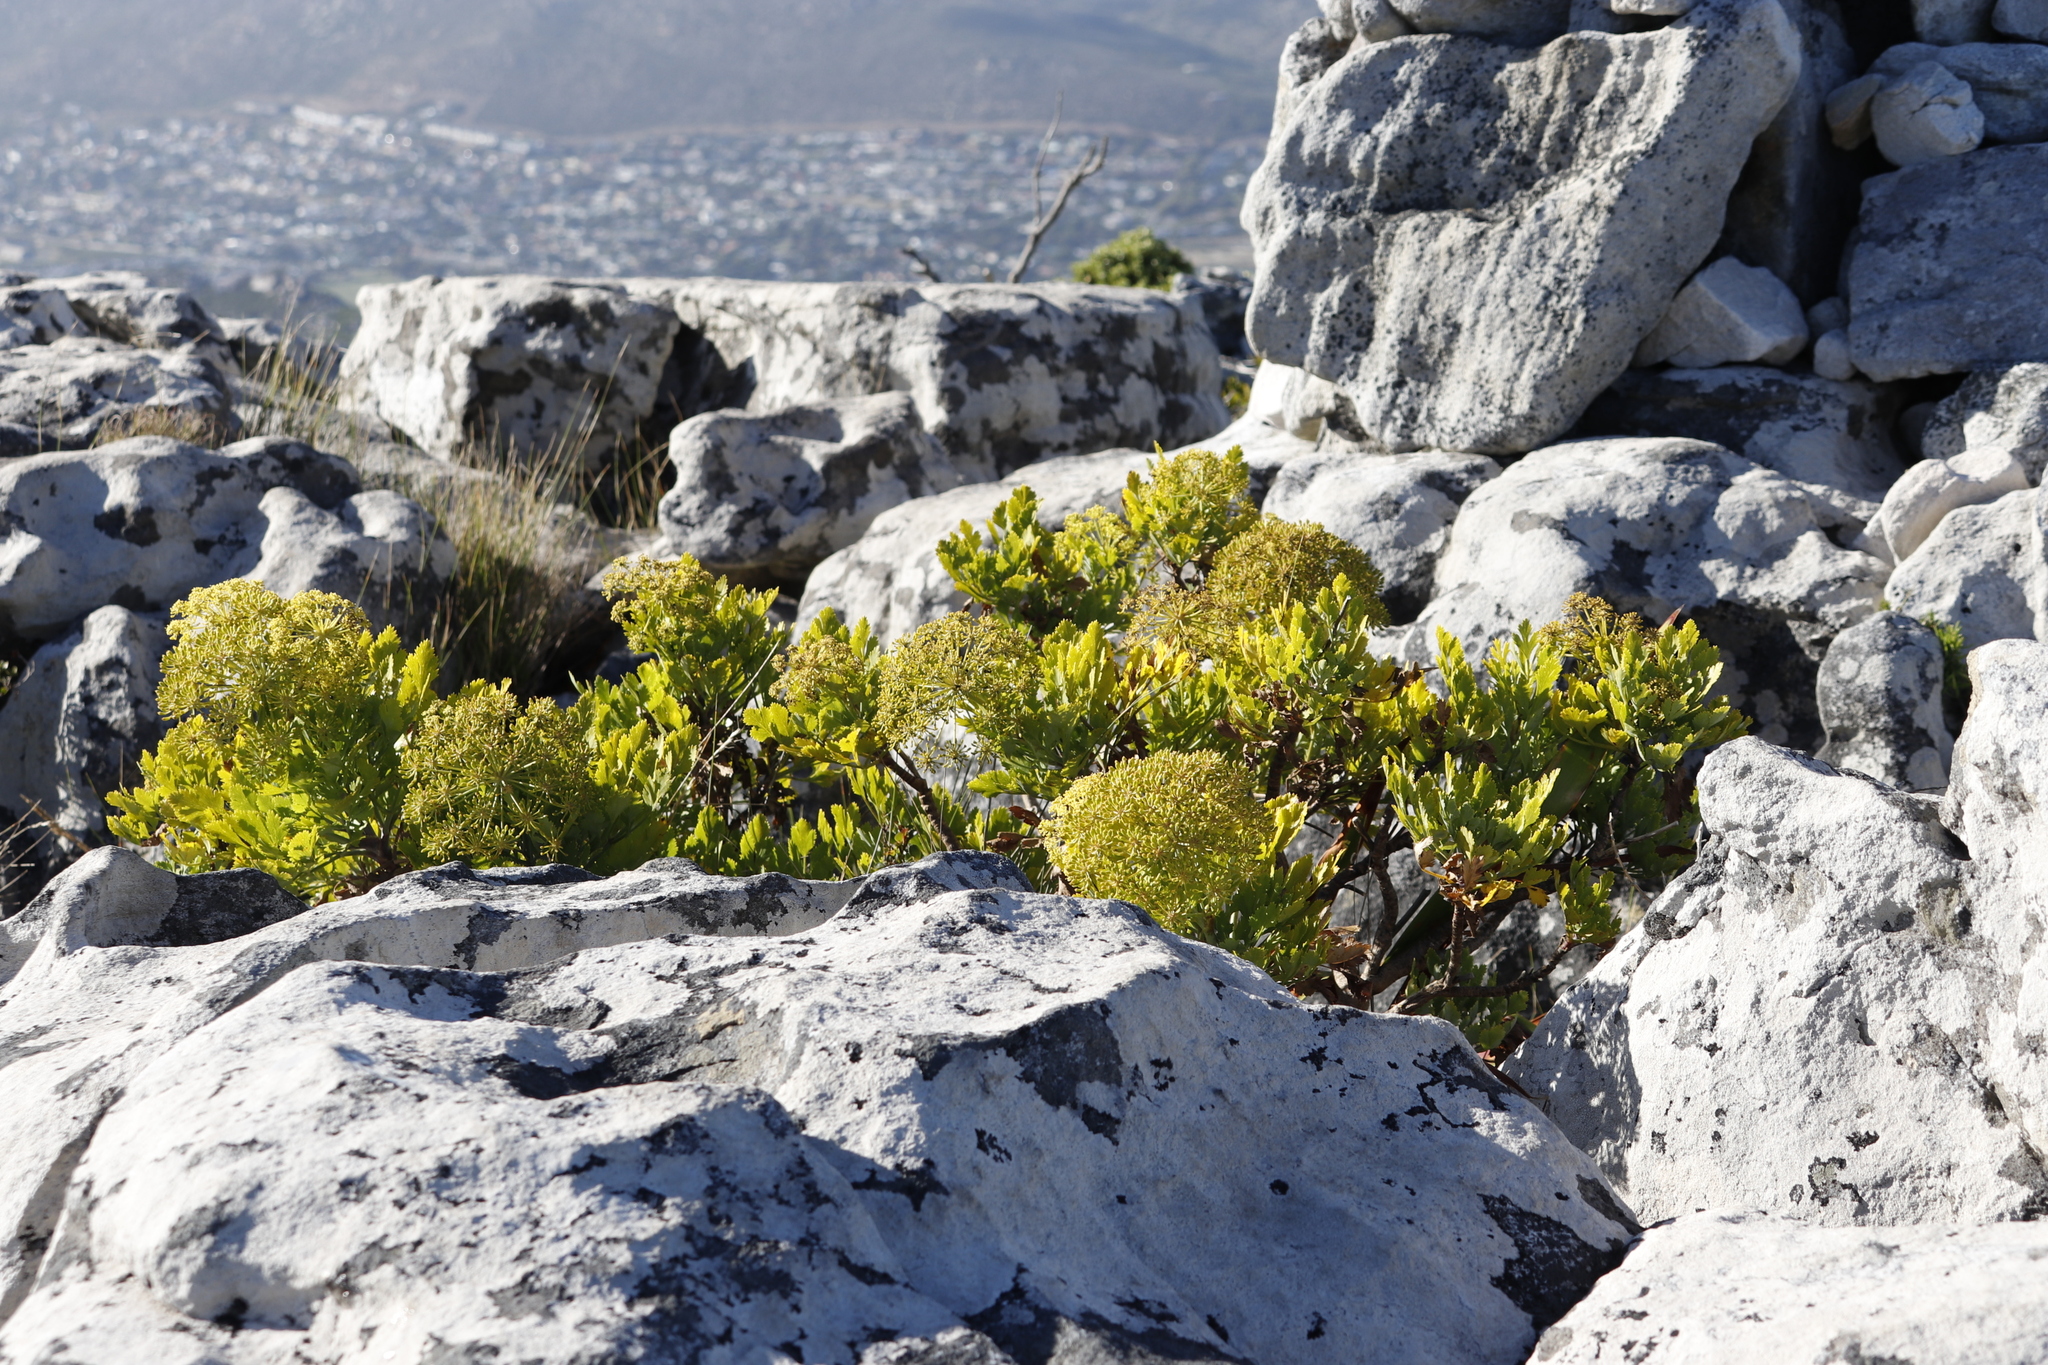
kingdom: Plantae
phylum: Tracheophyta
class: Magnoliopsida
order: Apiales
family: Apiaceae
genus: Notobubon
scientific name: Notobubon galbanum
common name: Blisterbush
